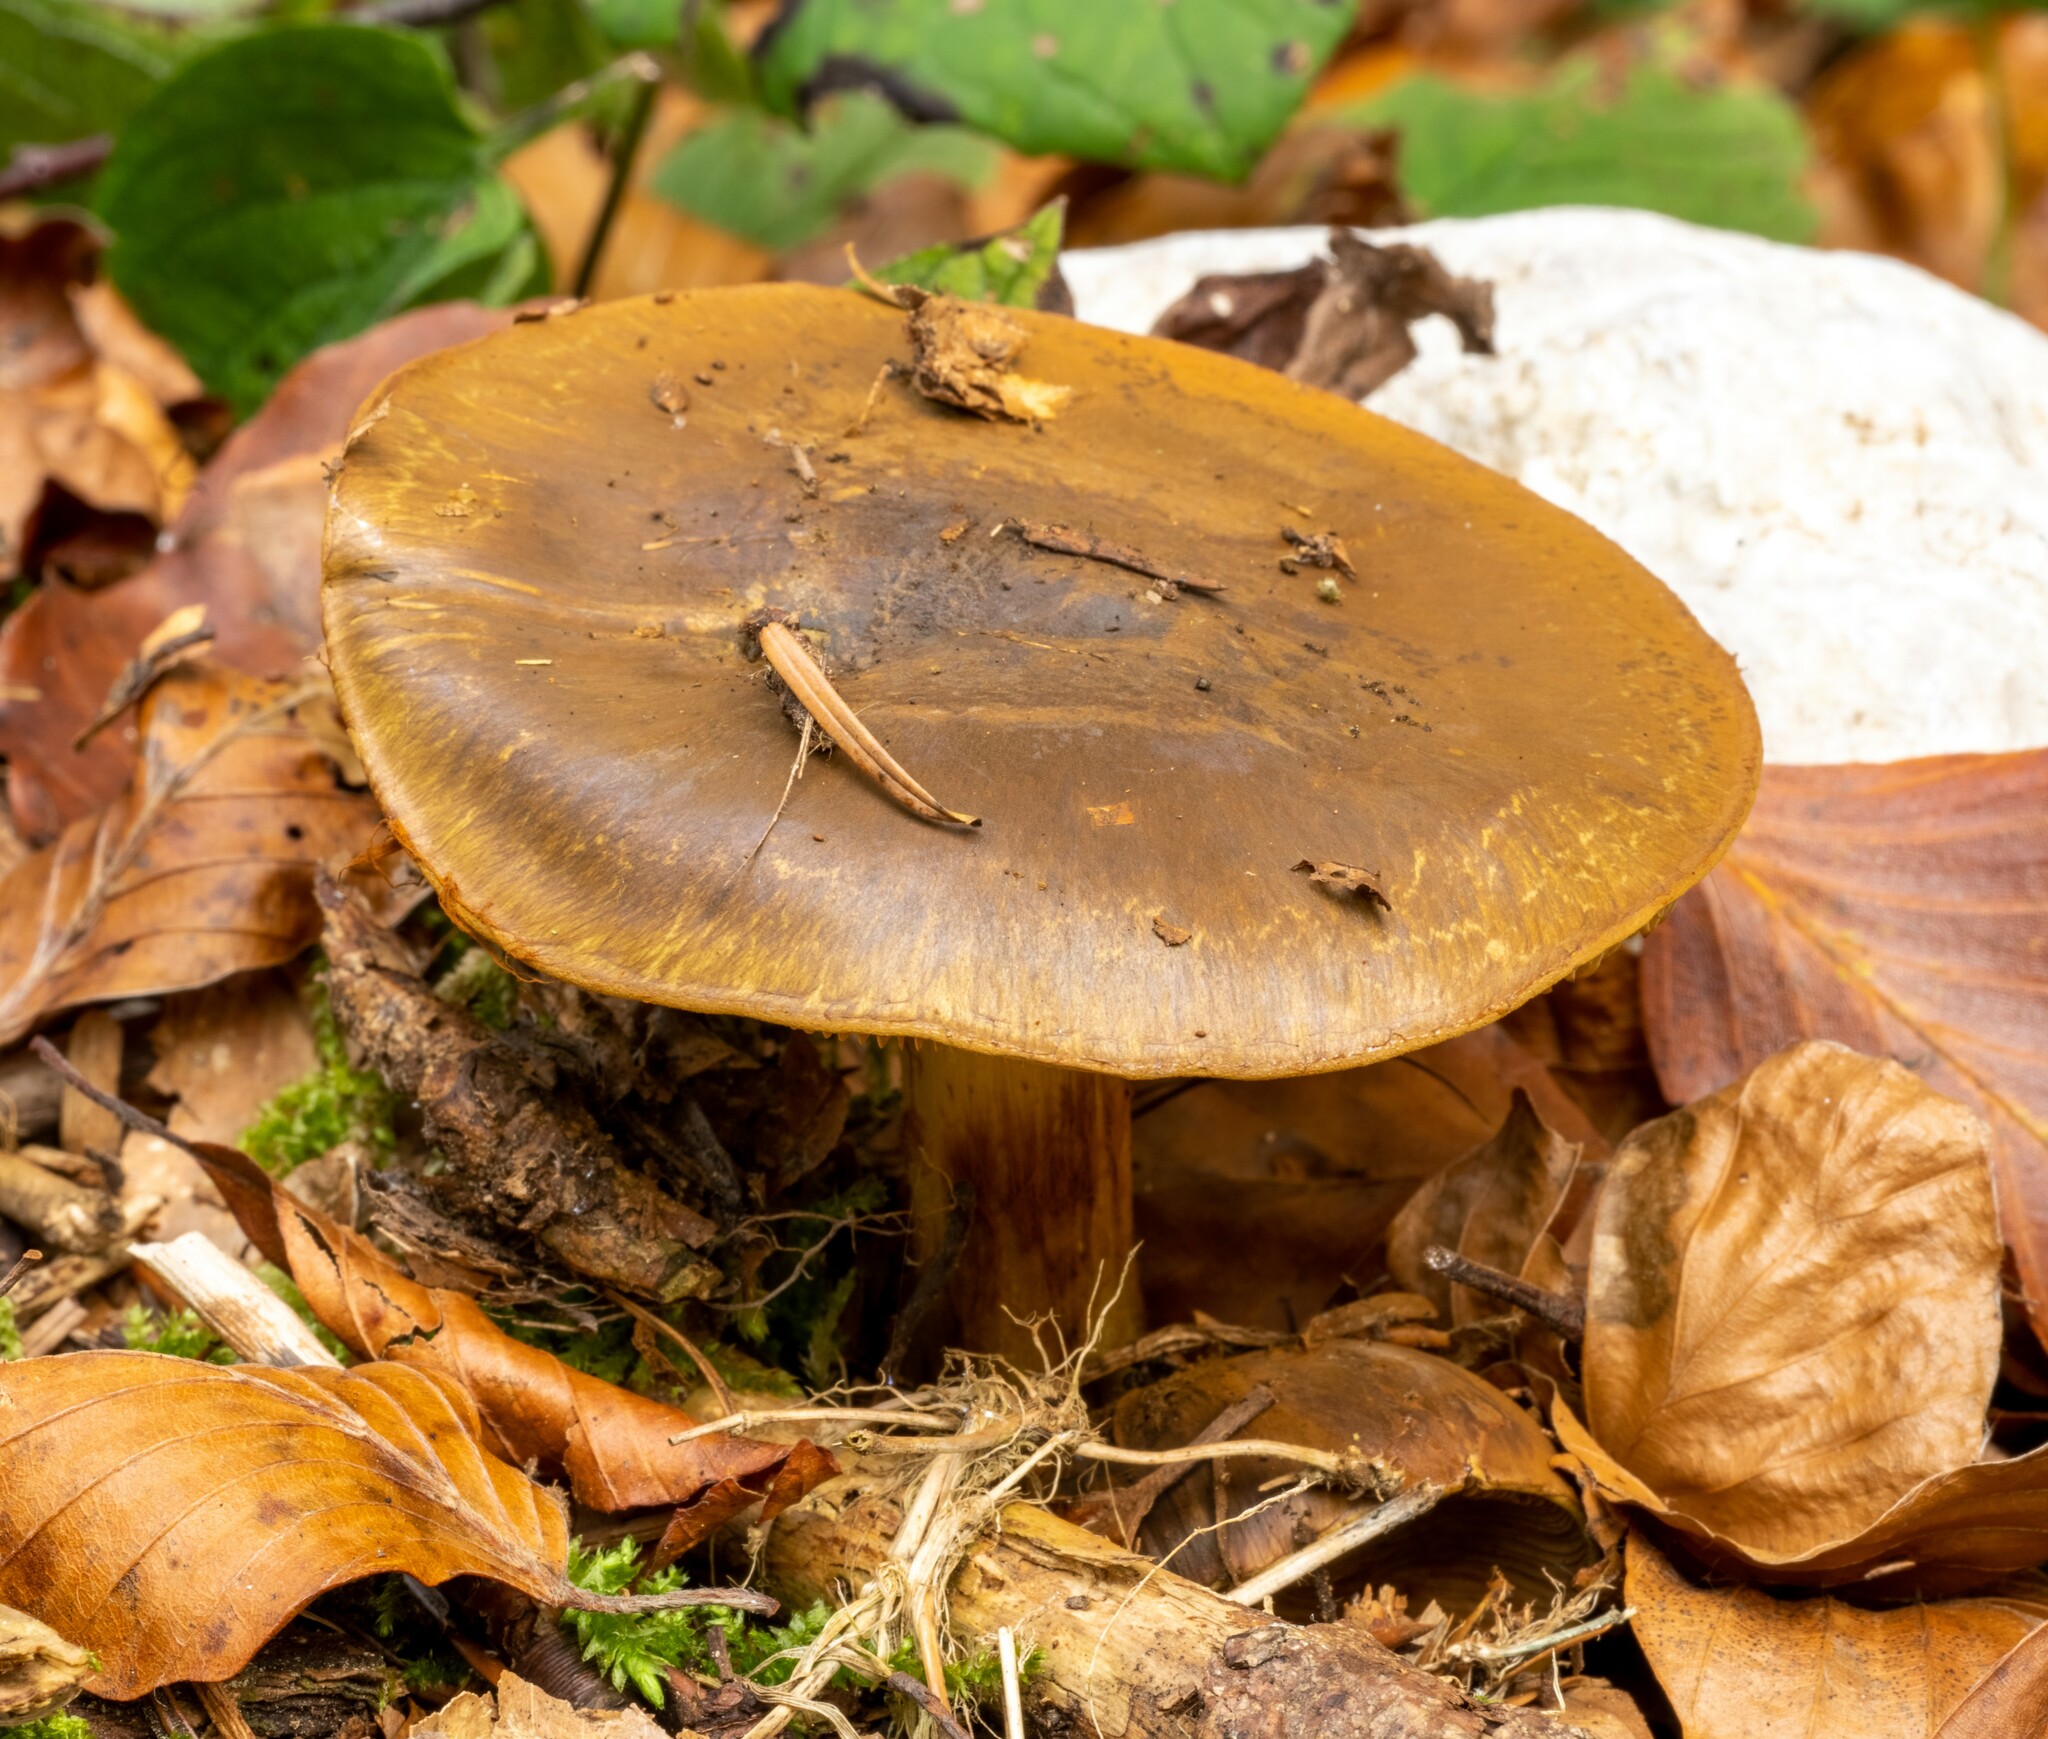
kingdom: Fungi
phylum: Basidiomycota
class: Agaricomycetes
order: Agaricales
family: Cortinariaceae
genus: Calonarius
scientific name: Calonarius atrovirens
